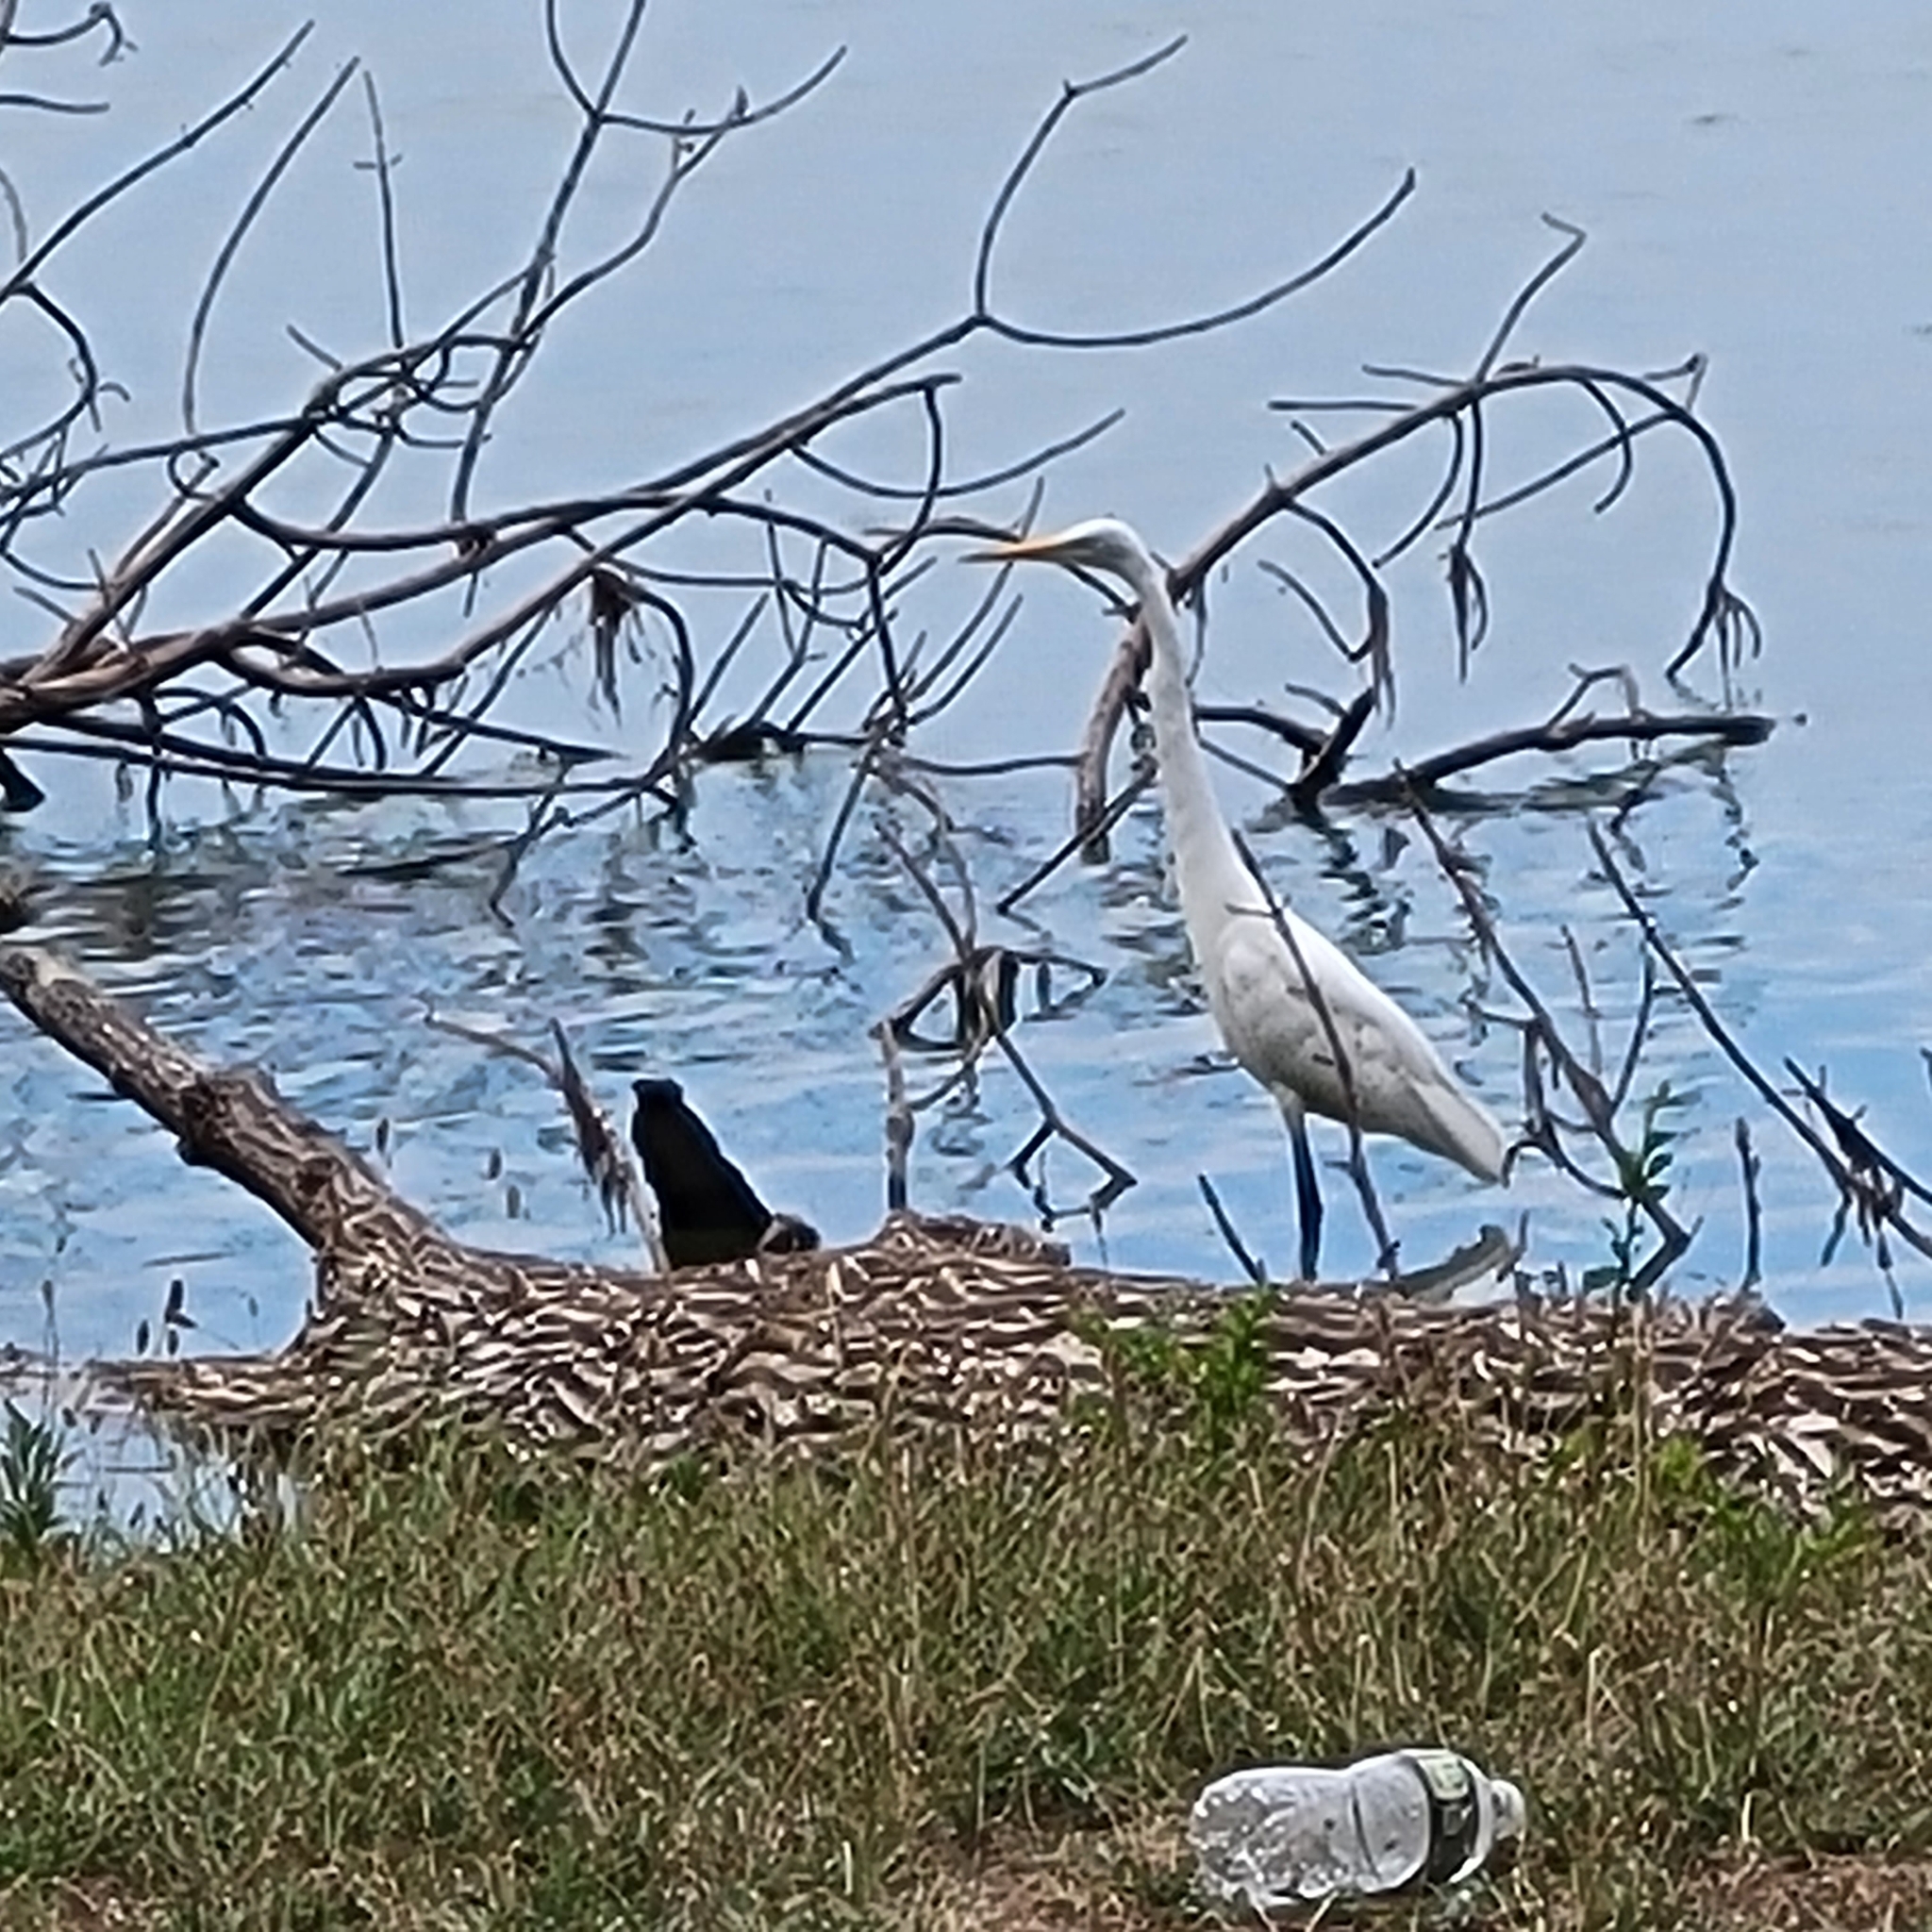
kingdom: Animalia
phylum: Chordata
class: Aves
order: Pelecaniformes
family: Ardeidae
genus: Ardea
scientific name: Ardea alba
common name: Great egret
